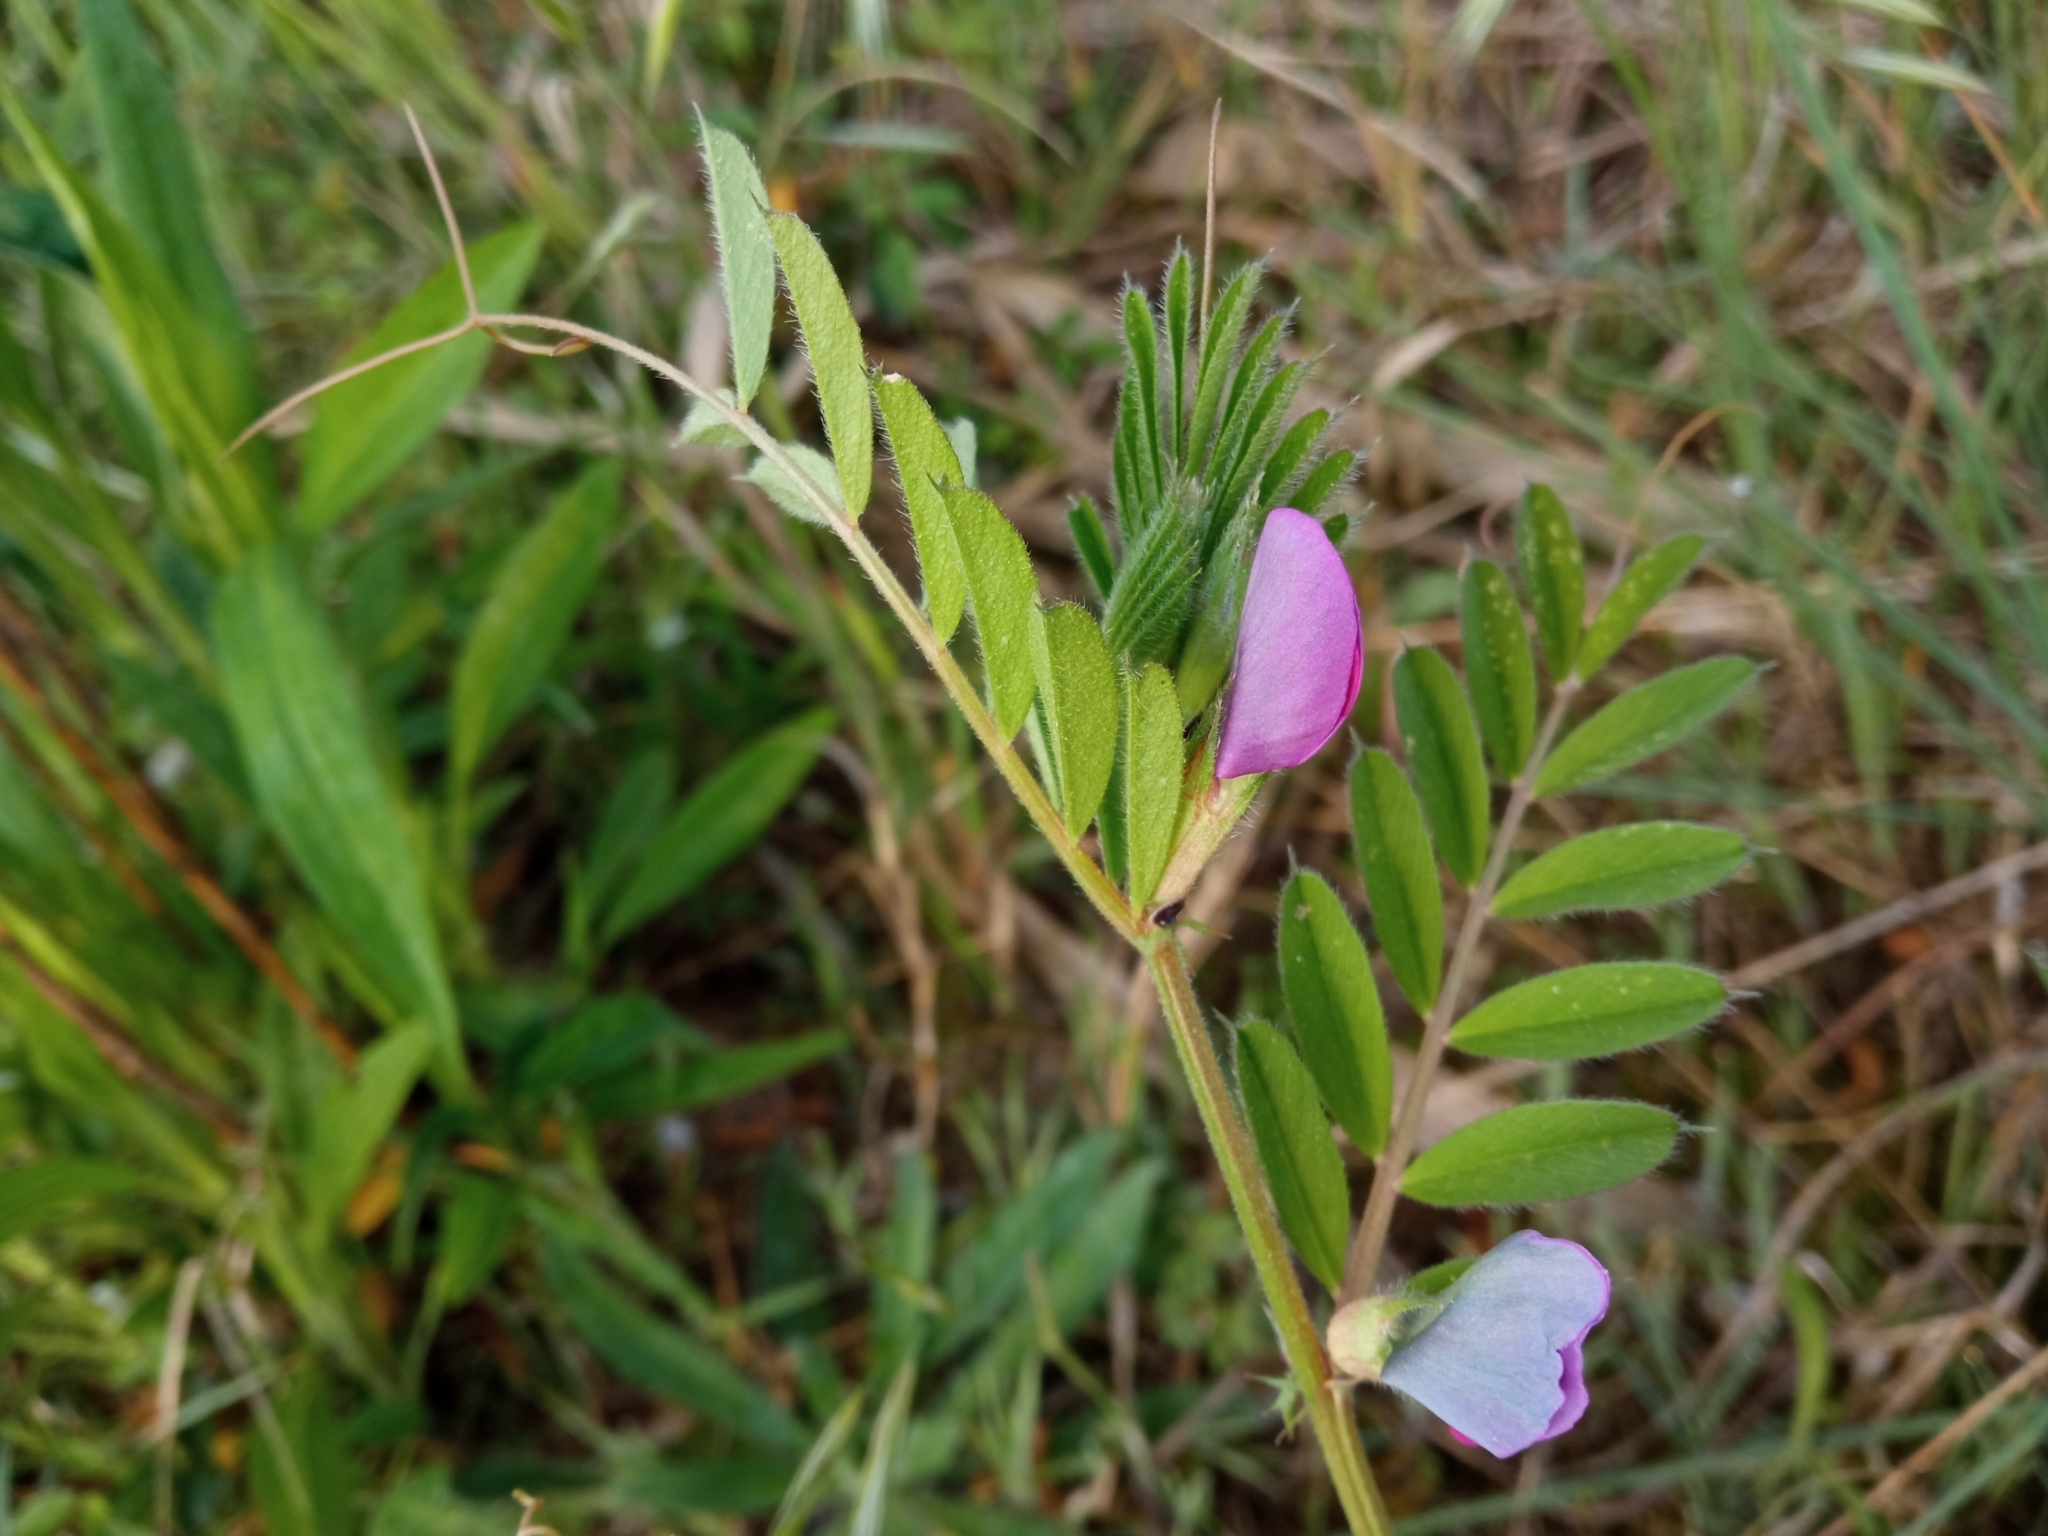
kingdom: Plantae
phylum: Tracheophyta
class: Magnoliopsida
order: Fabales
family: Fabaceae
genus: Vicia
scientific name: Vicia sativa
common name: Garden vetch
